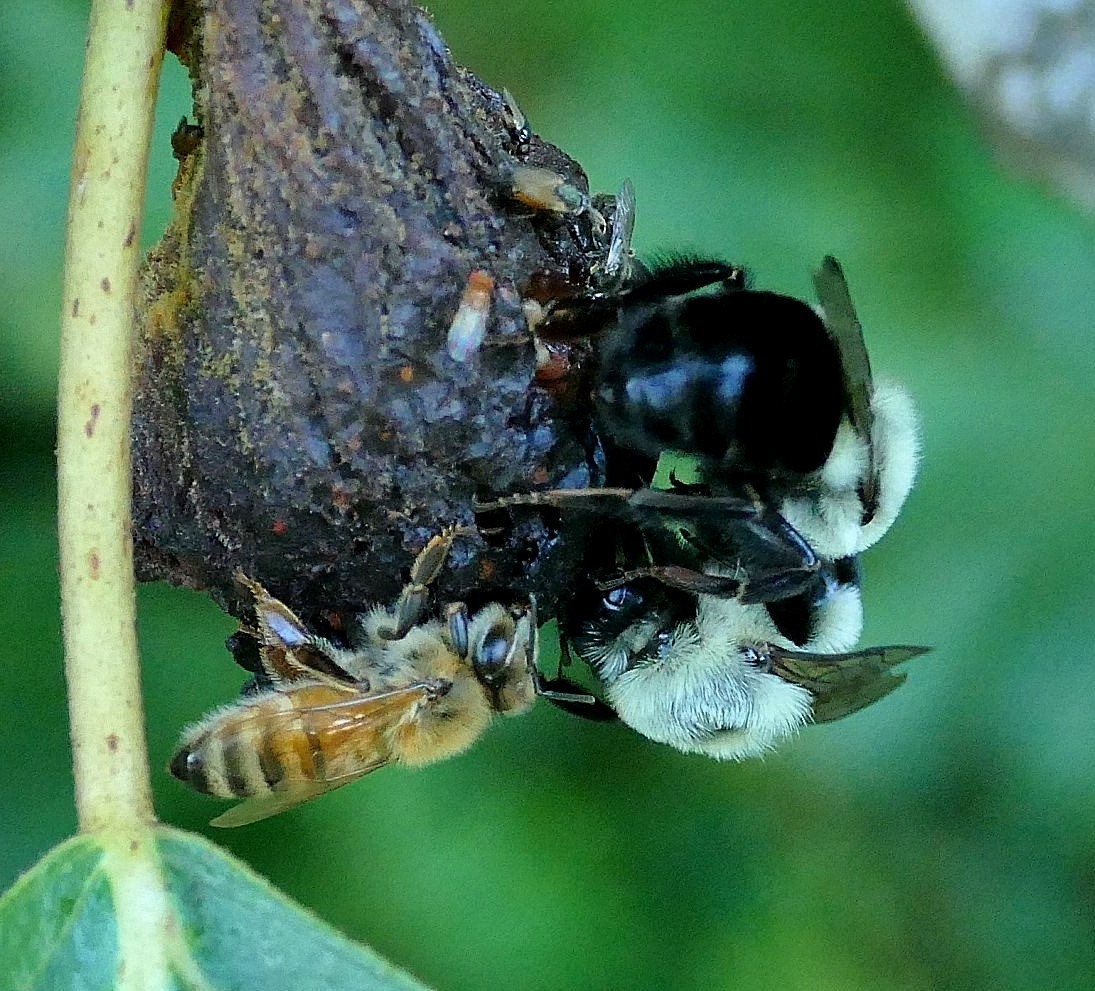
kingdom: Animalia
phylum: Arthropoda
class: Insecta
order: Hymenoptera
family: Apidae
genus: Apis
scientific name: Apis mellifera
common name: Honey bee
